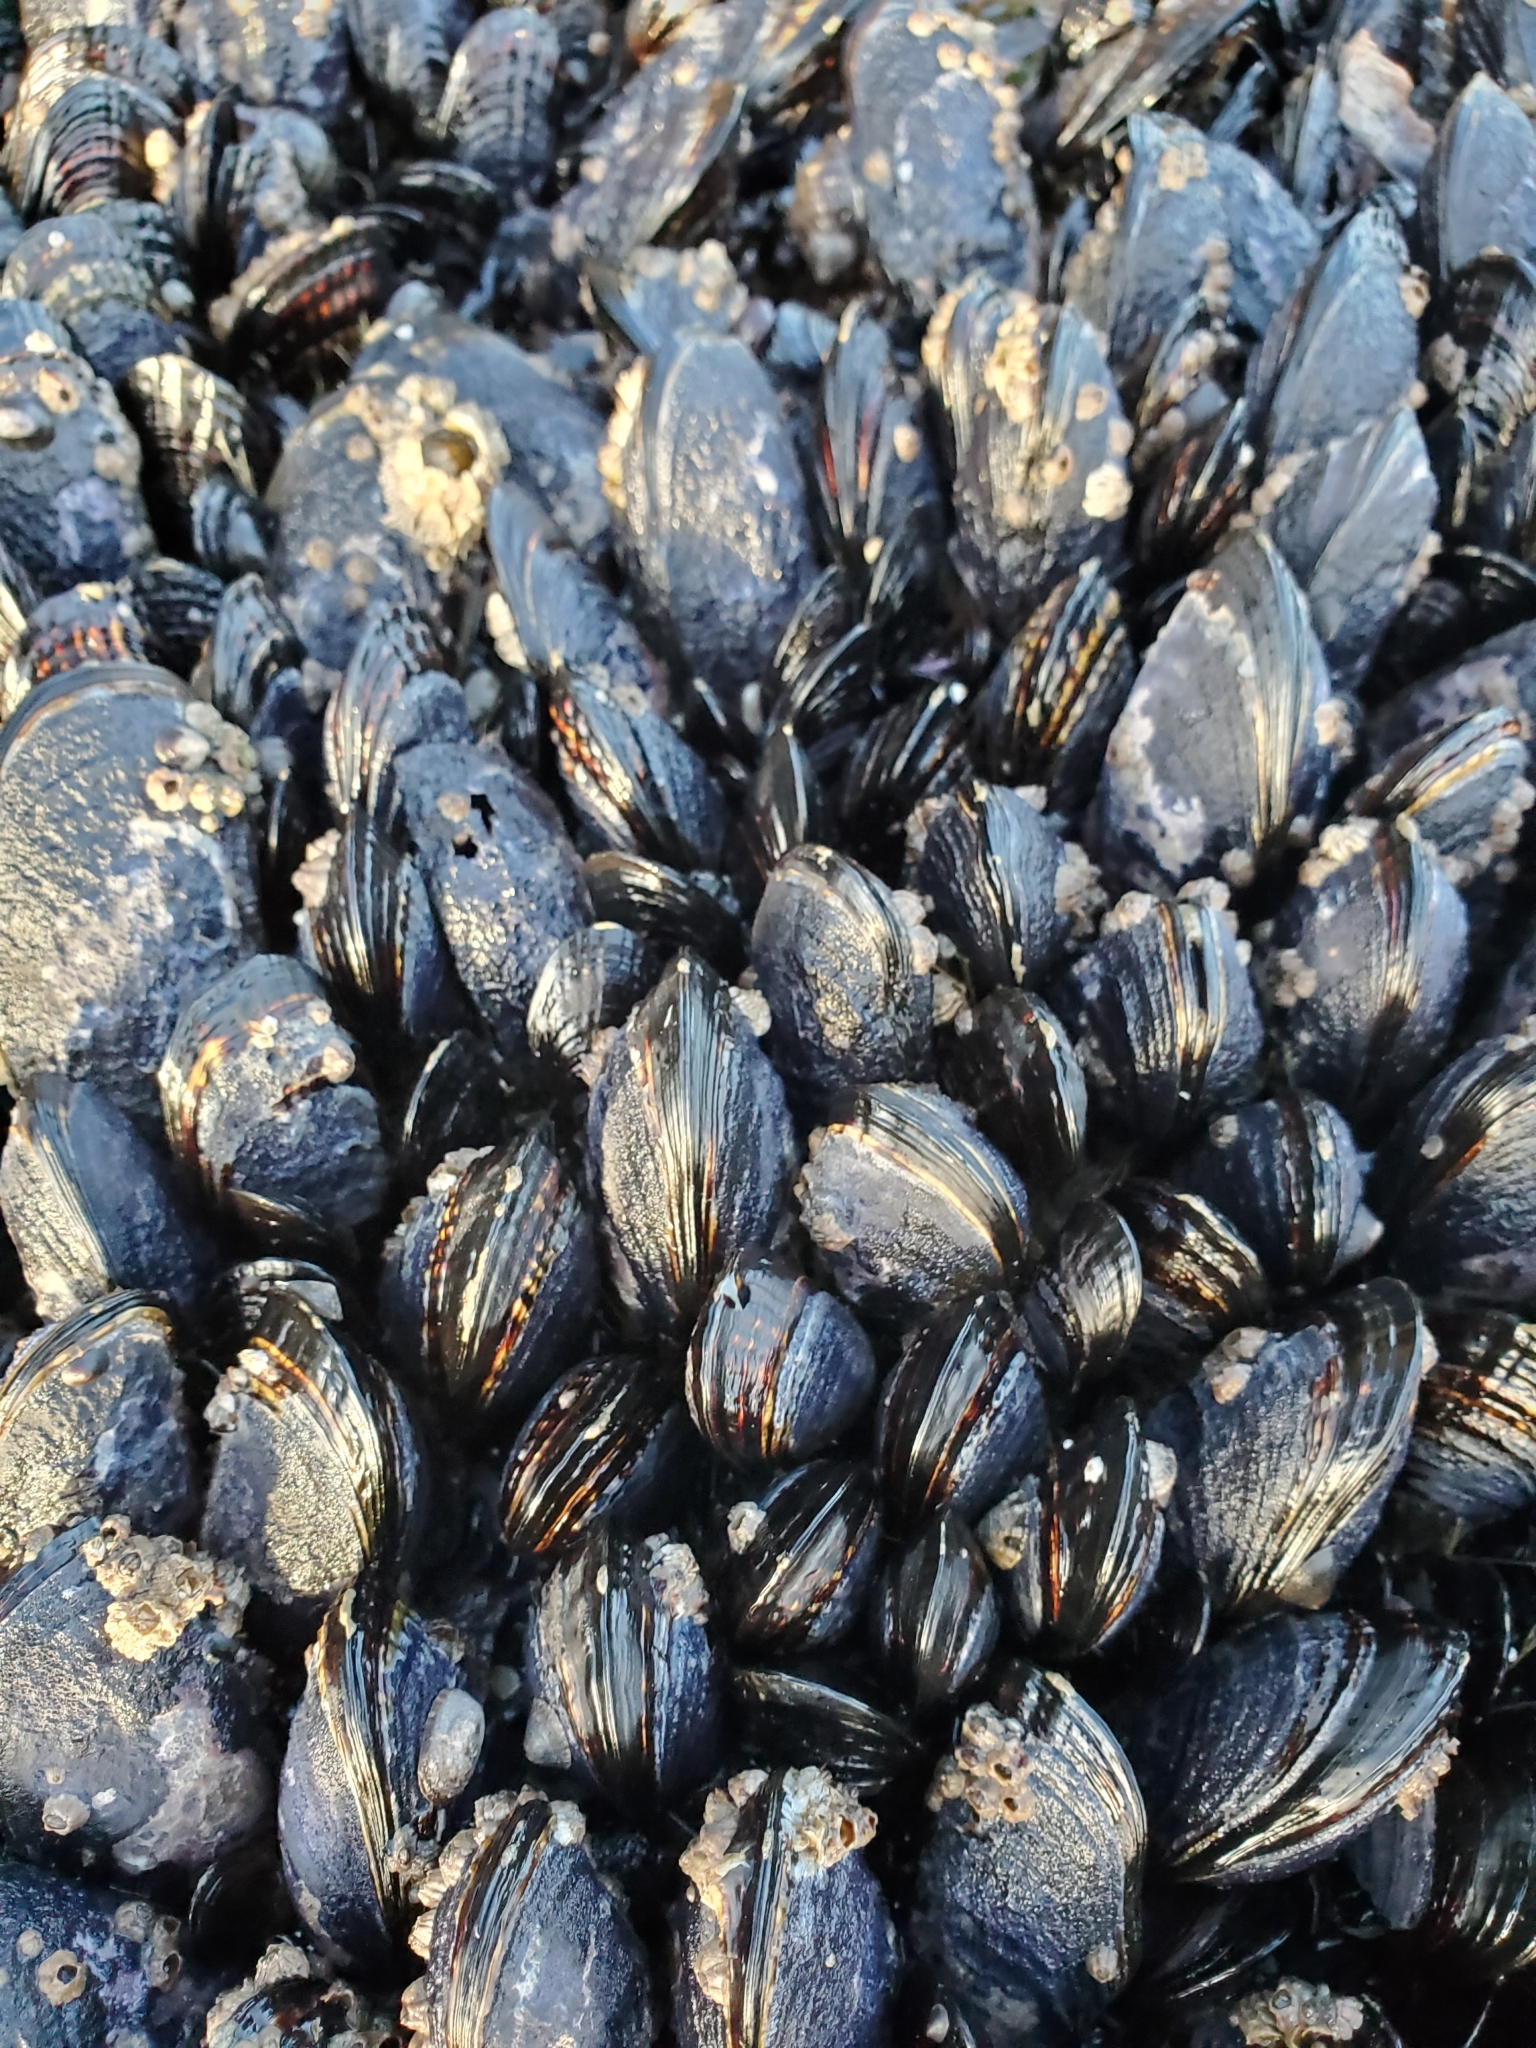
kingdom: Animalia
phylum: Mollusca
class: Bivalvia
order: Mytilida
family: Mytilidae
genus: Mytilus
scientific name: Mytilus californianus
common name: California mussel
